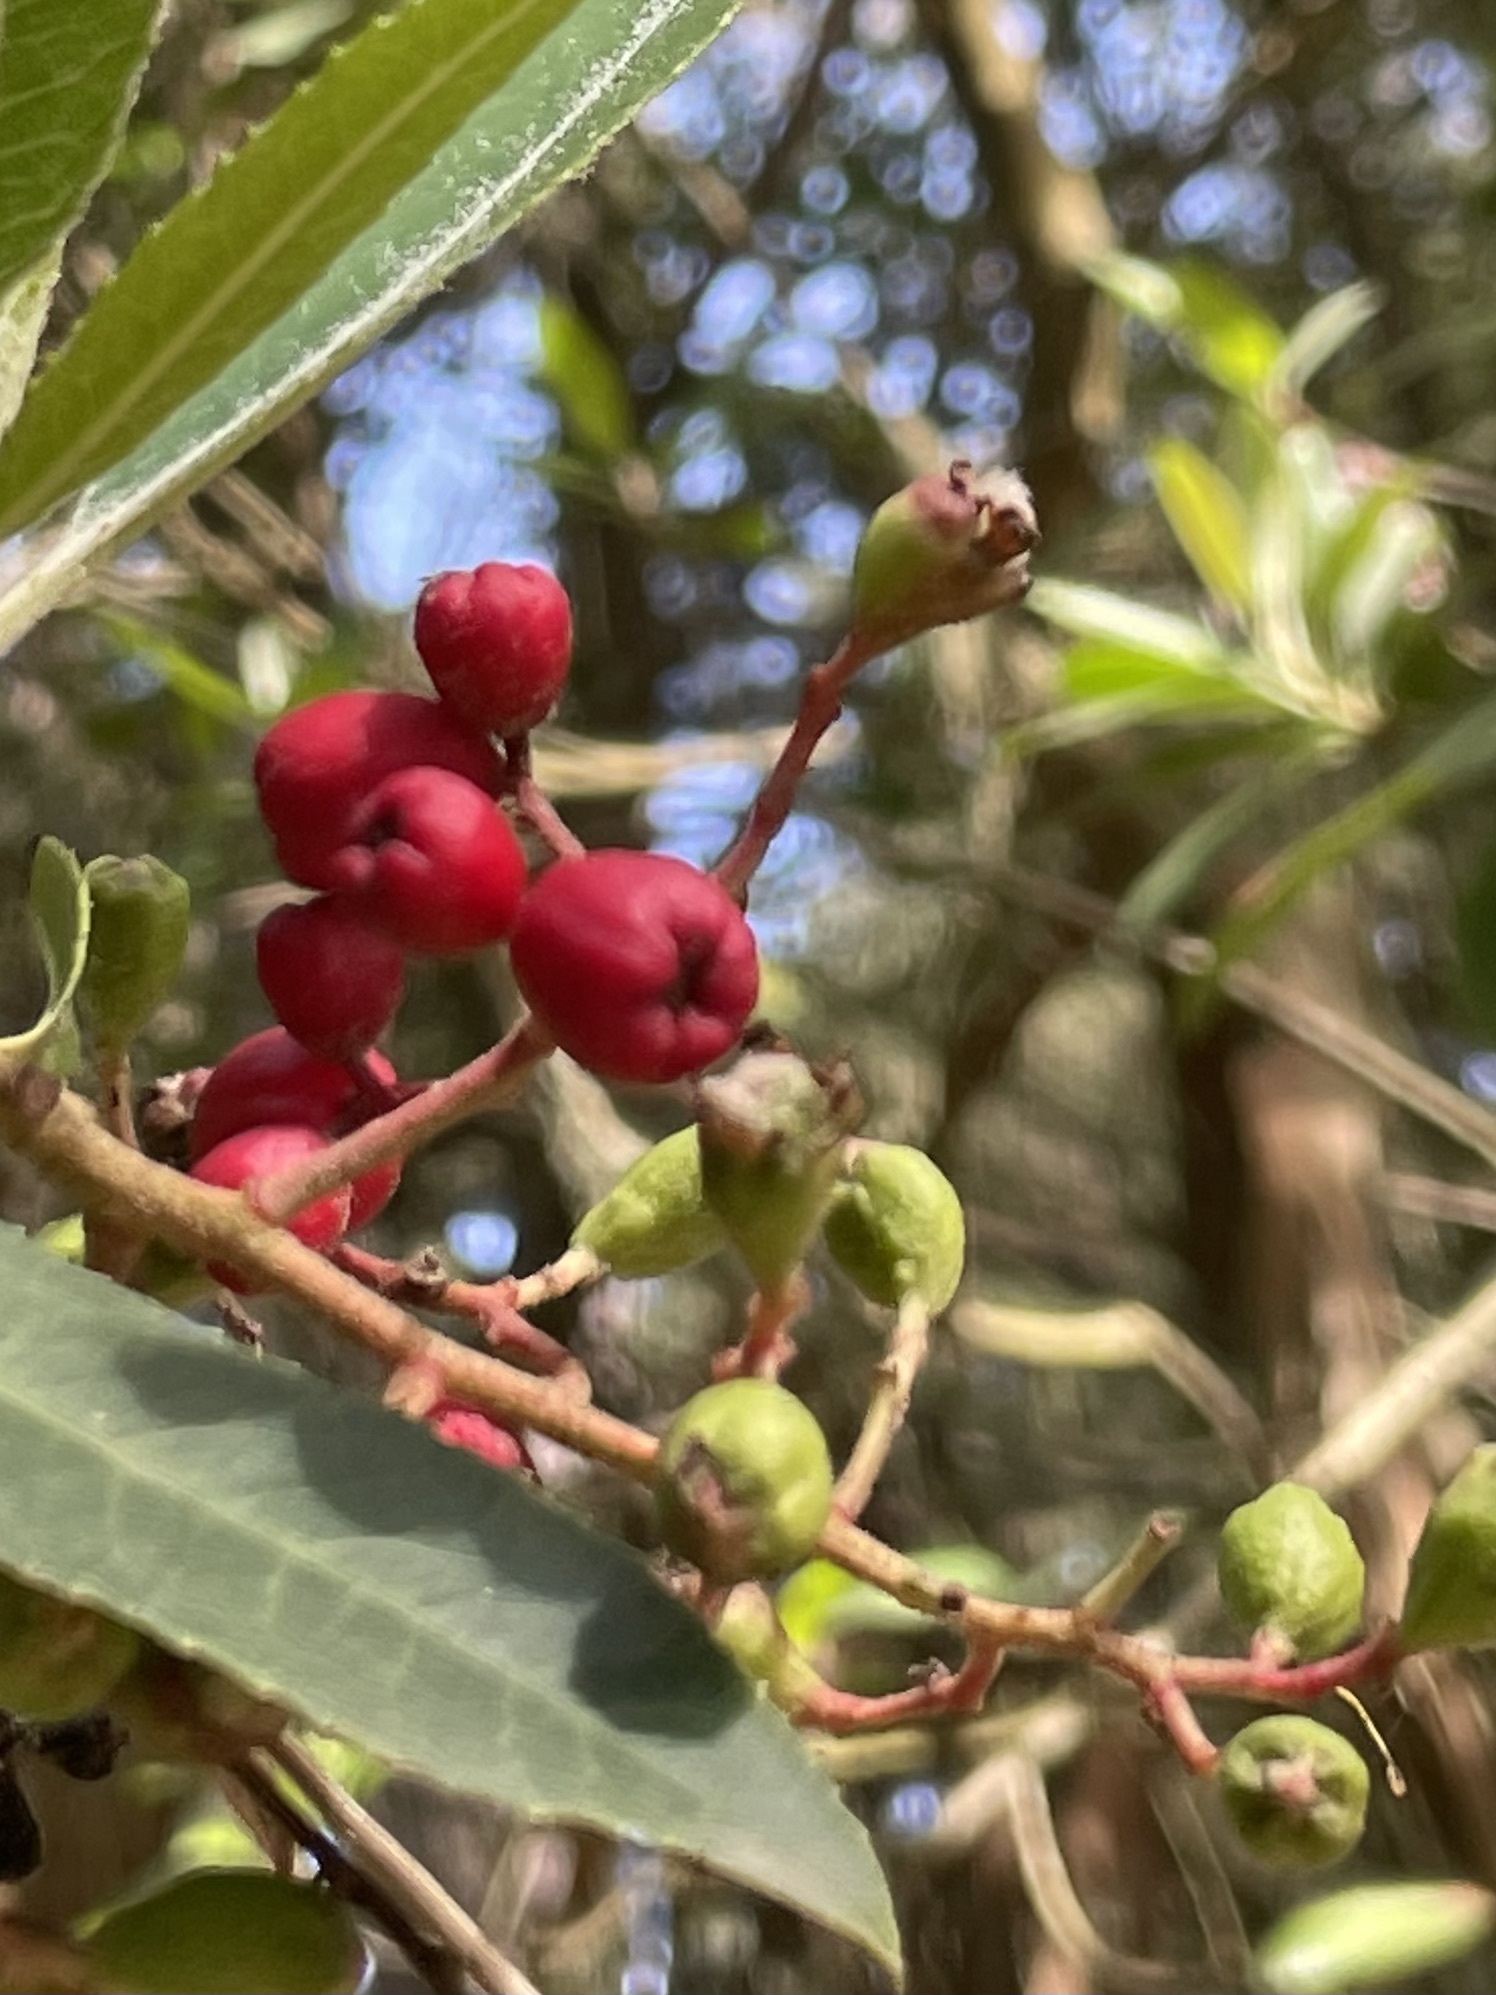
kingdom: Animalia
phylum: Arthropoda
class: Insecta
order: Diptera
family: Cecidomyiidae
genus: Asphondylia
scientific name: Asphondylia photiniae
